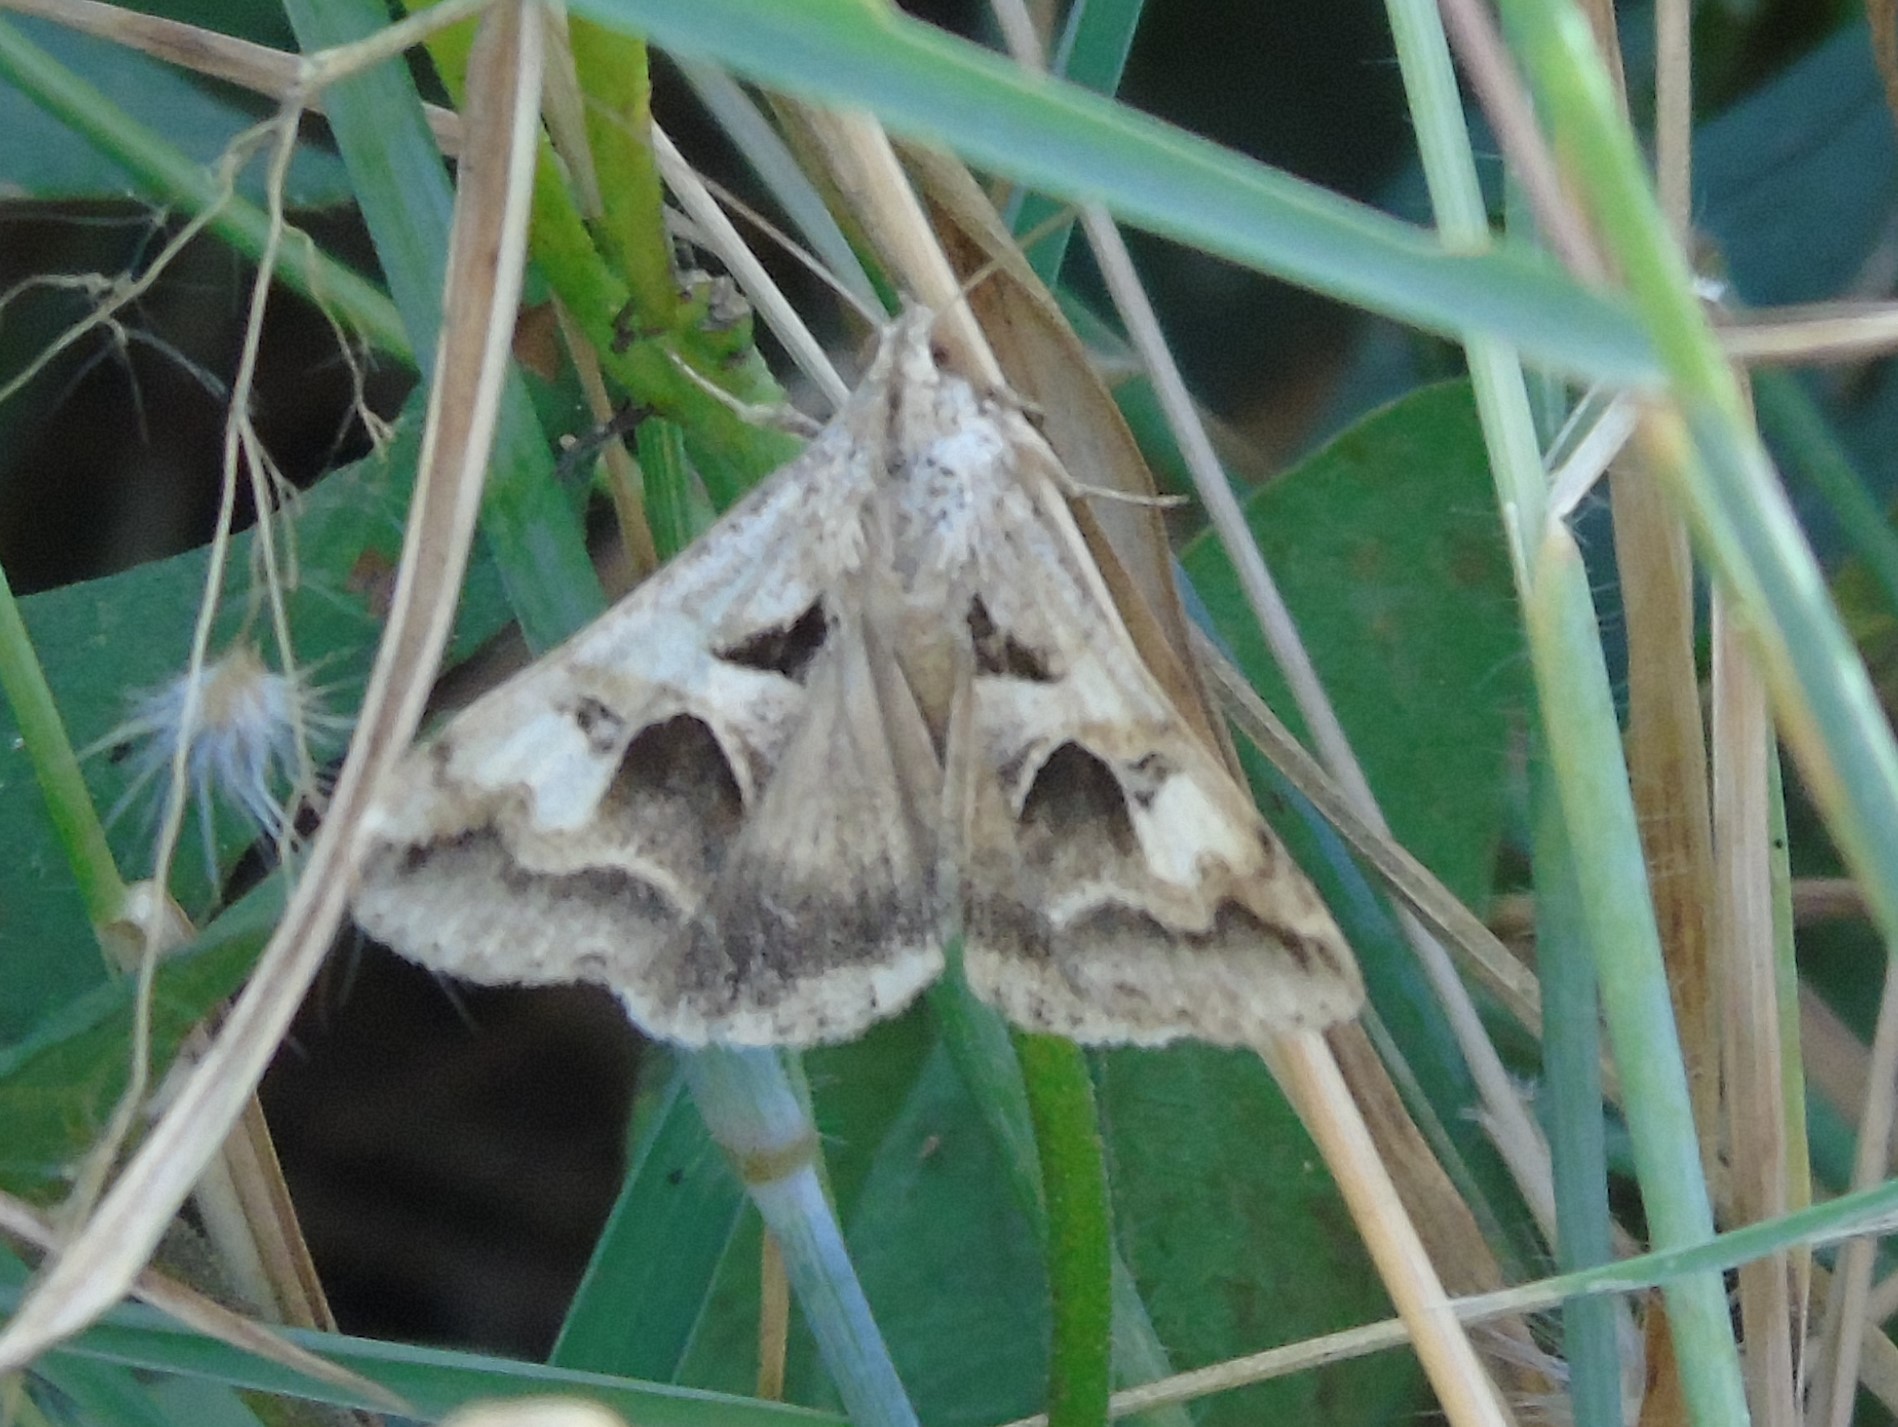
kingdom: Animalia
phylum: Arthropoda
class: Insecta
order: Lepidoptera
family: Erebidae
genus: Melipotis
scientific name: Melipotis cellaris
